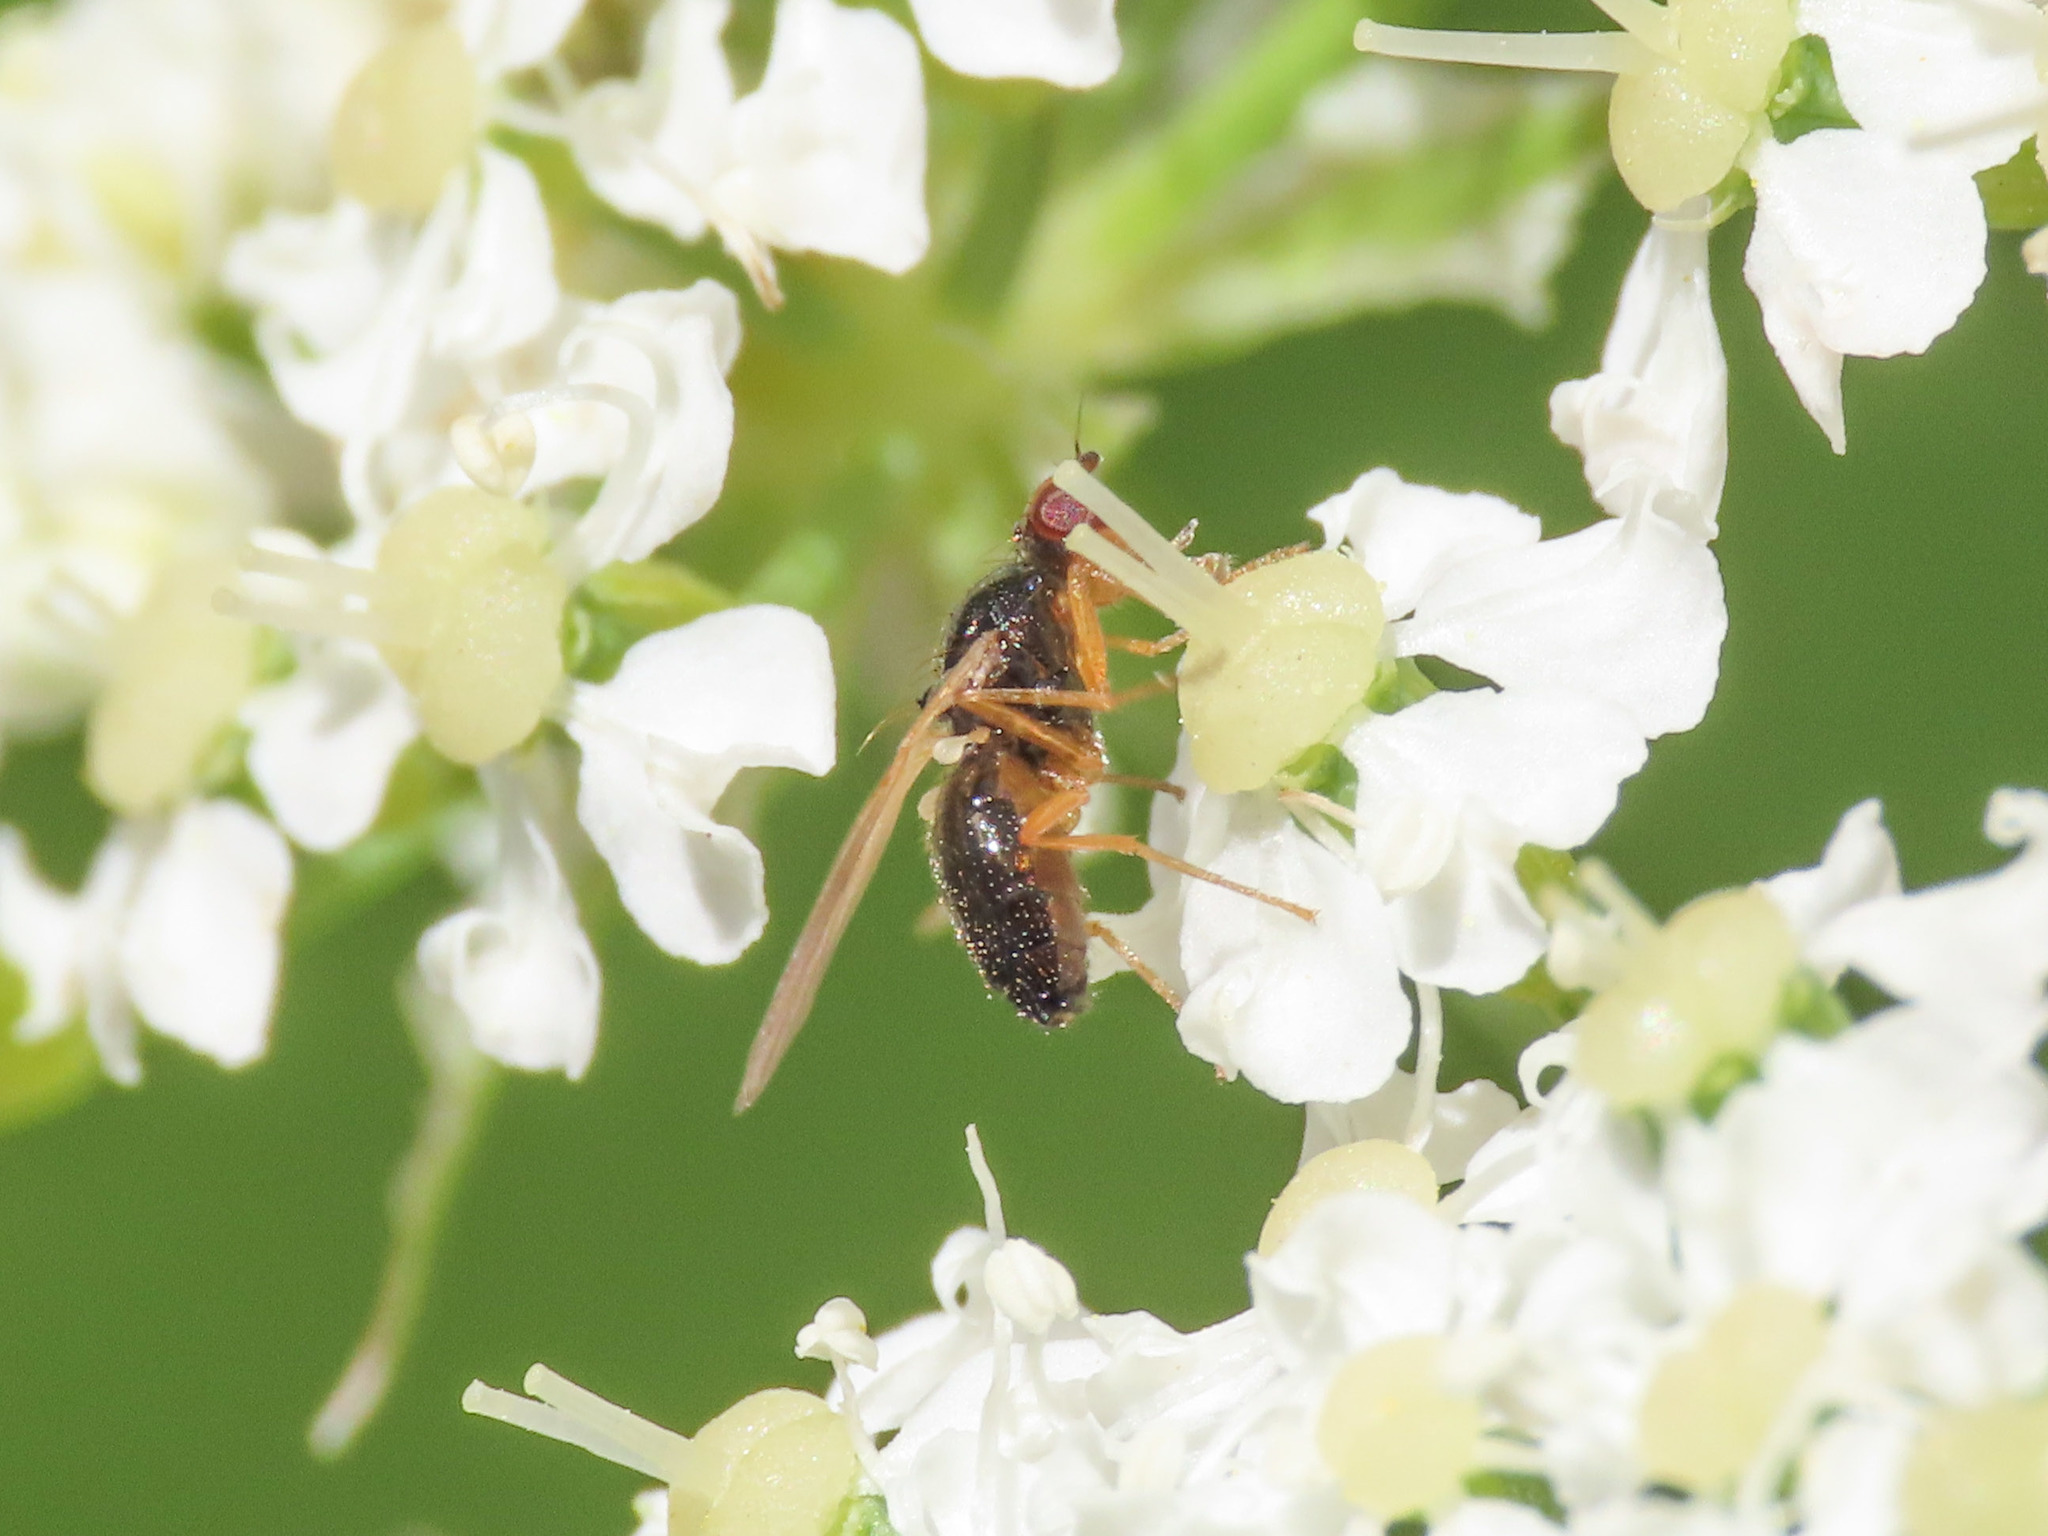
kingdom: Animalia
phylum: Arthropoda
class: Insecta
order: Diptera
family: Psilidae
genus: Psila
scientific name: Psila persimilis
